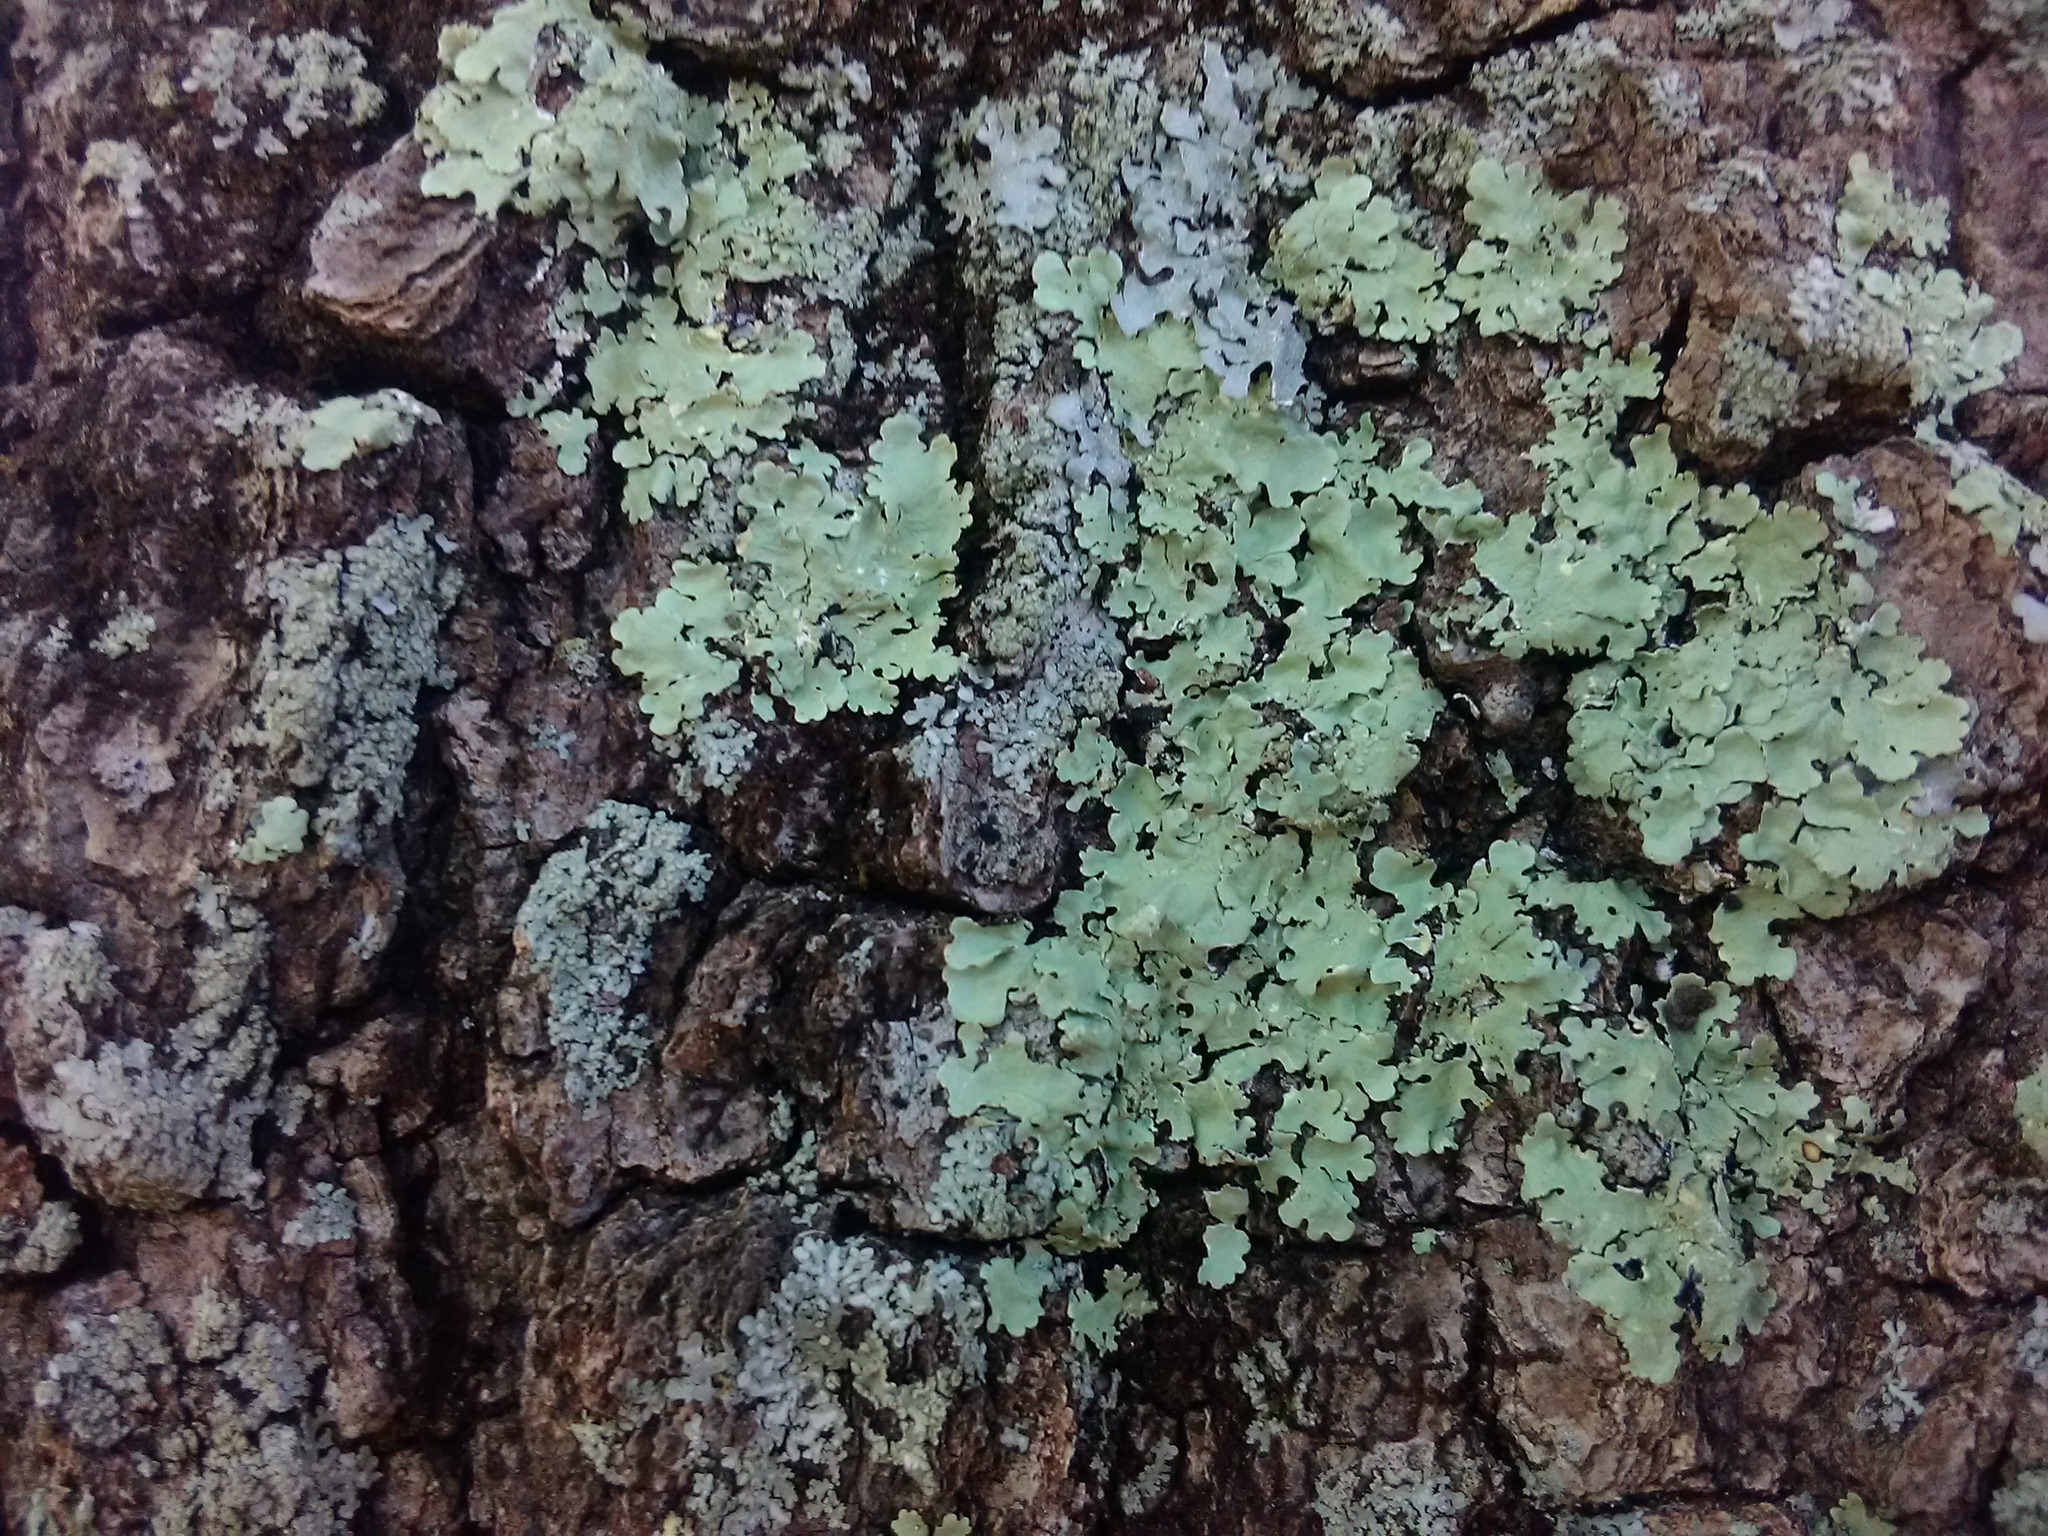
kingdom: Fungi
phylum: Ascomycota
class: Lecanoromycetes
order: Lecanorales
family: Parmeliaceae
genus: Flavoparmelia
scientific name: Flavoparmelia caperata
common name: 40-mile per hour lichen
